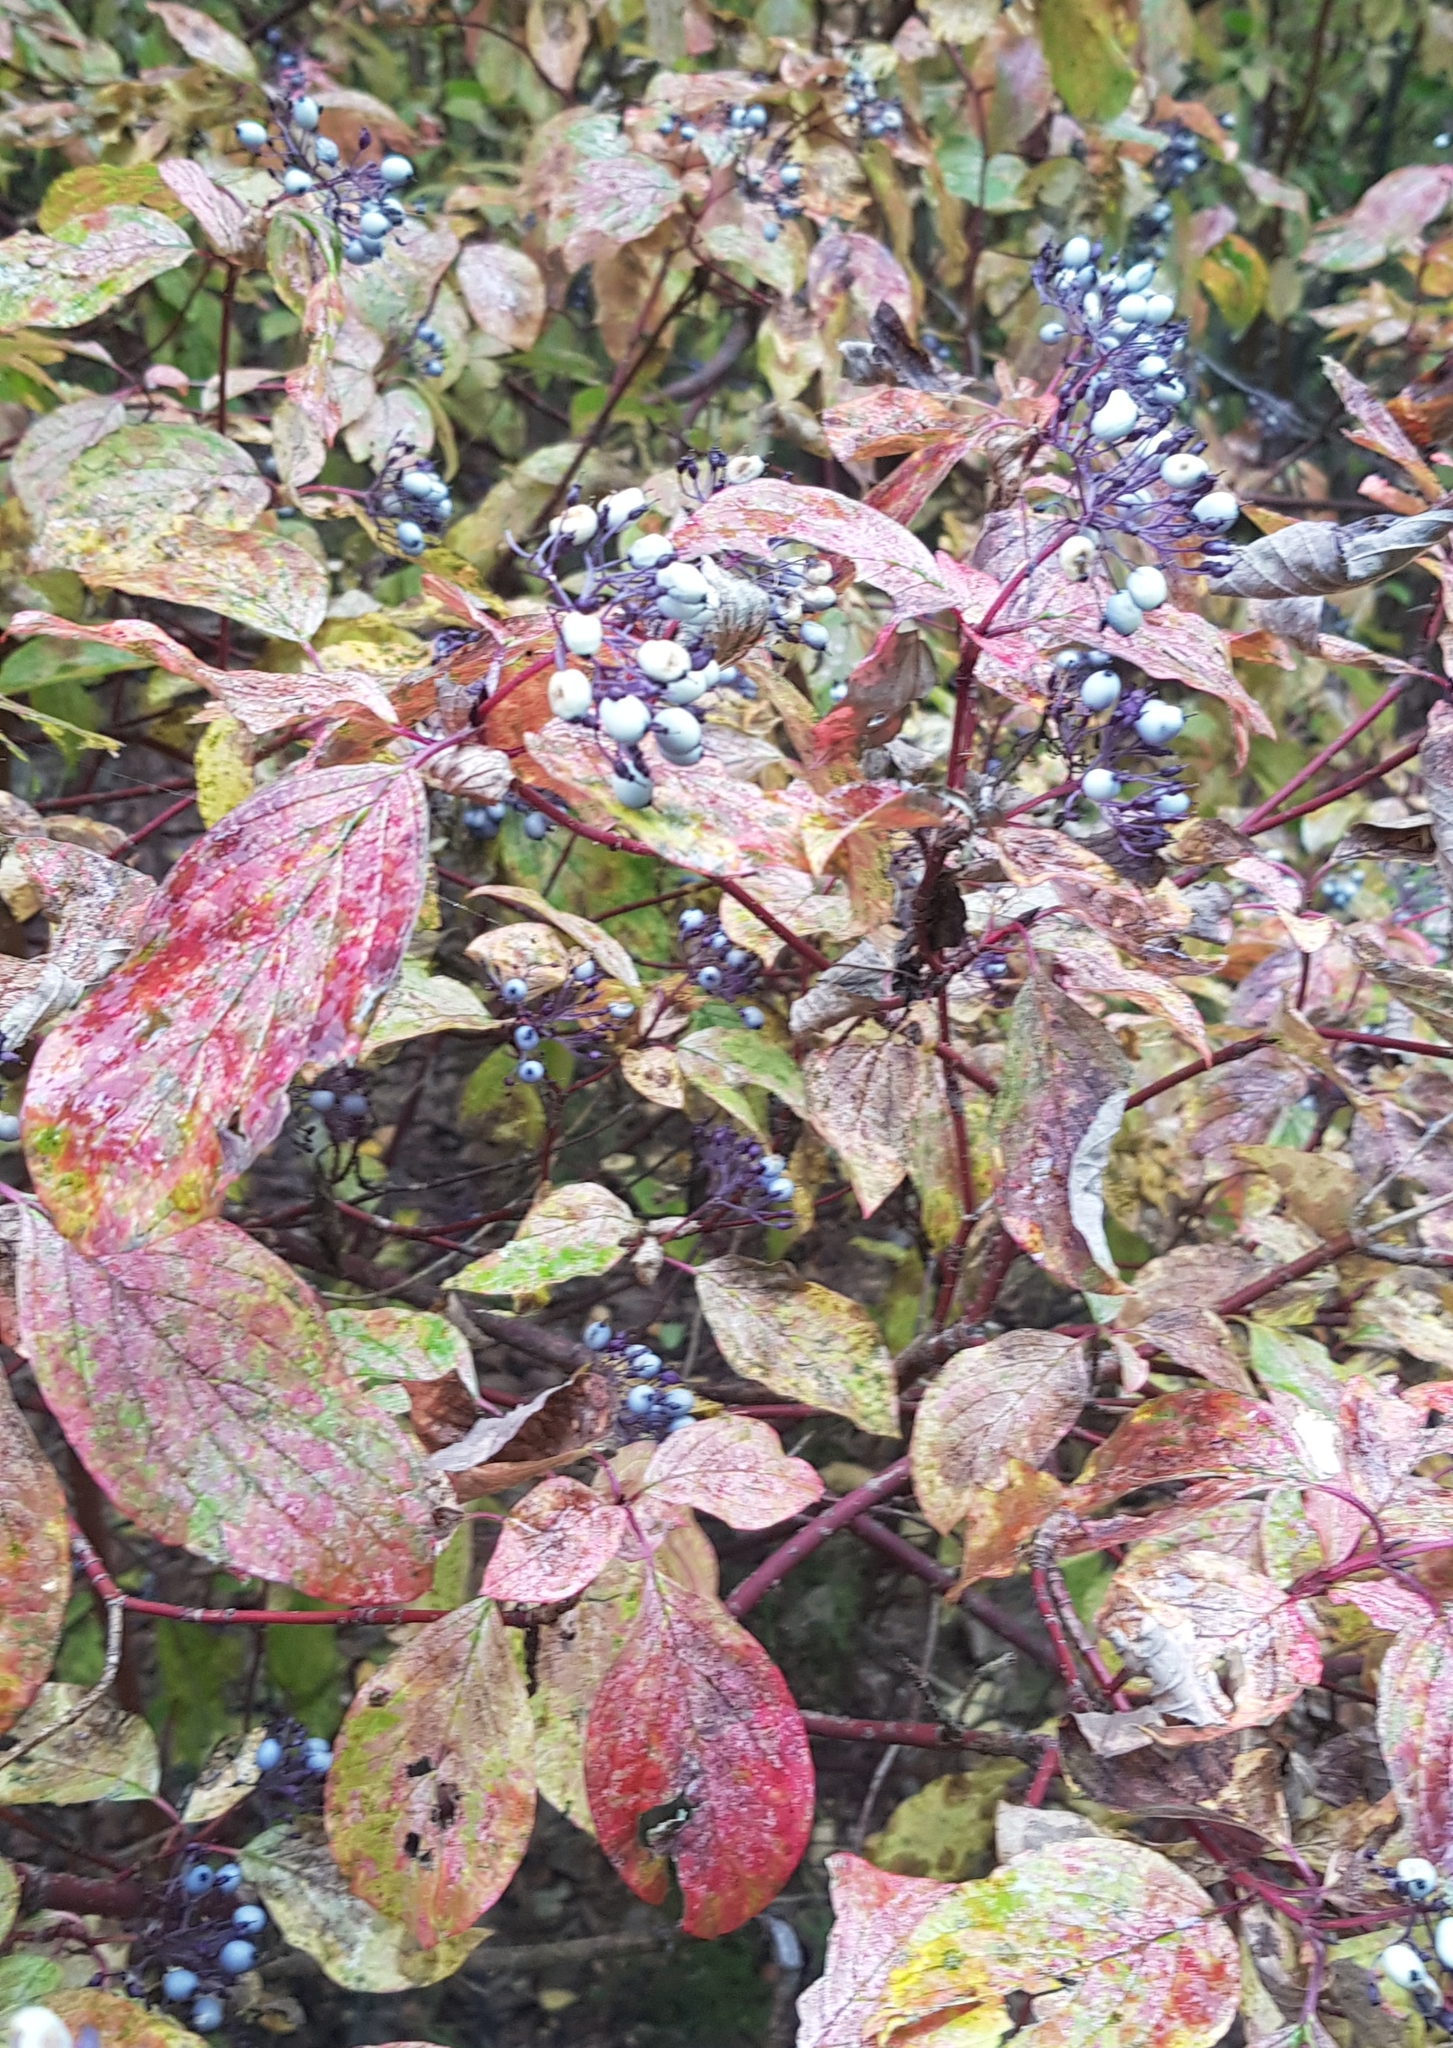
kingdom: Plantae
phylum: Tracheophyta
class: Magnoliopsida
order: Cornales
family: Cornaceae
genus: Cornus
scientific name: Cornus alba
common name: White dogwood
